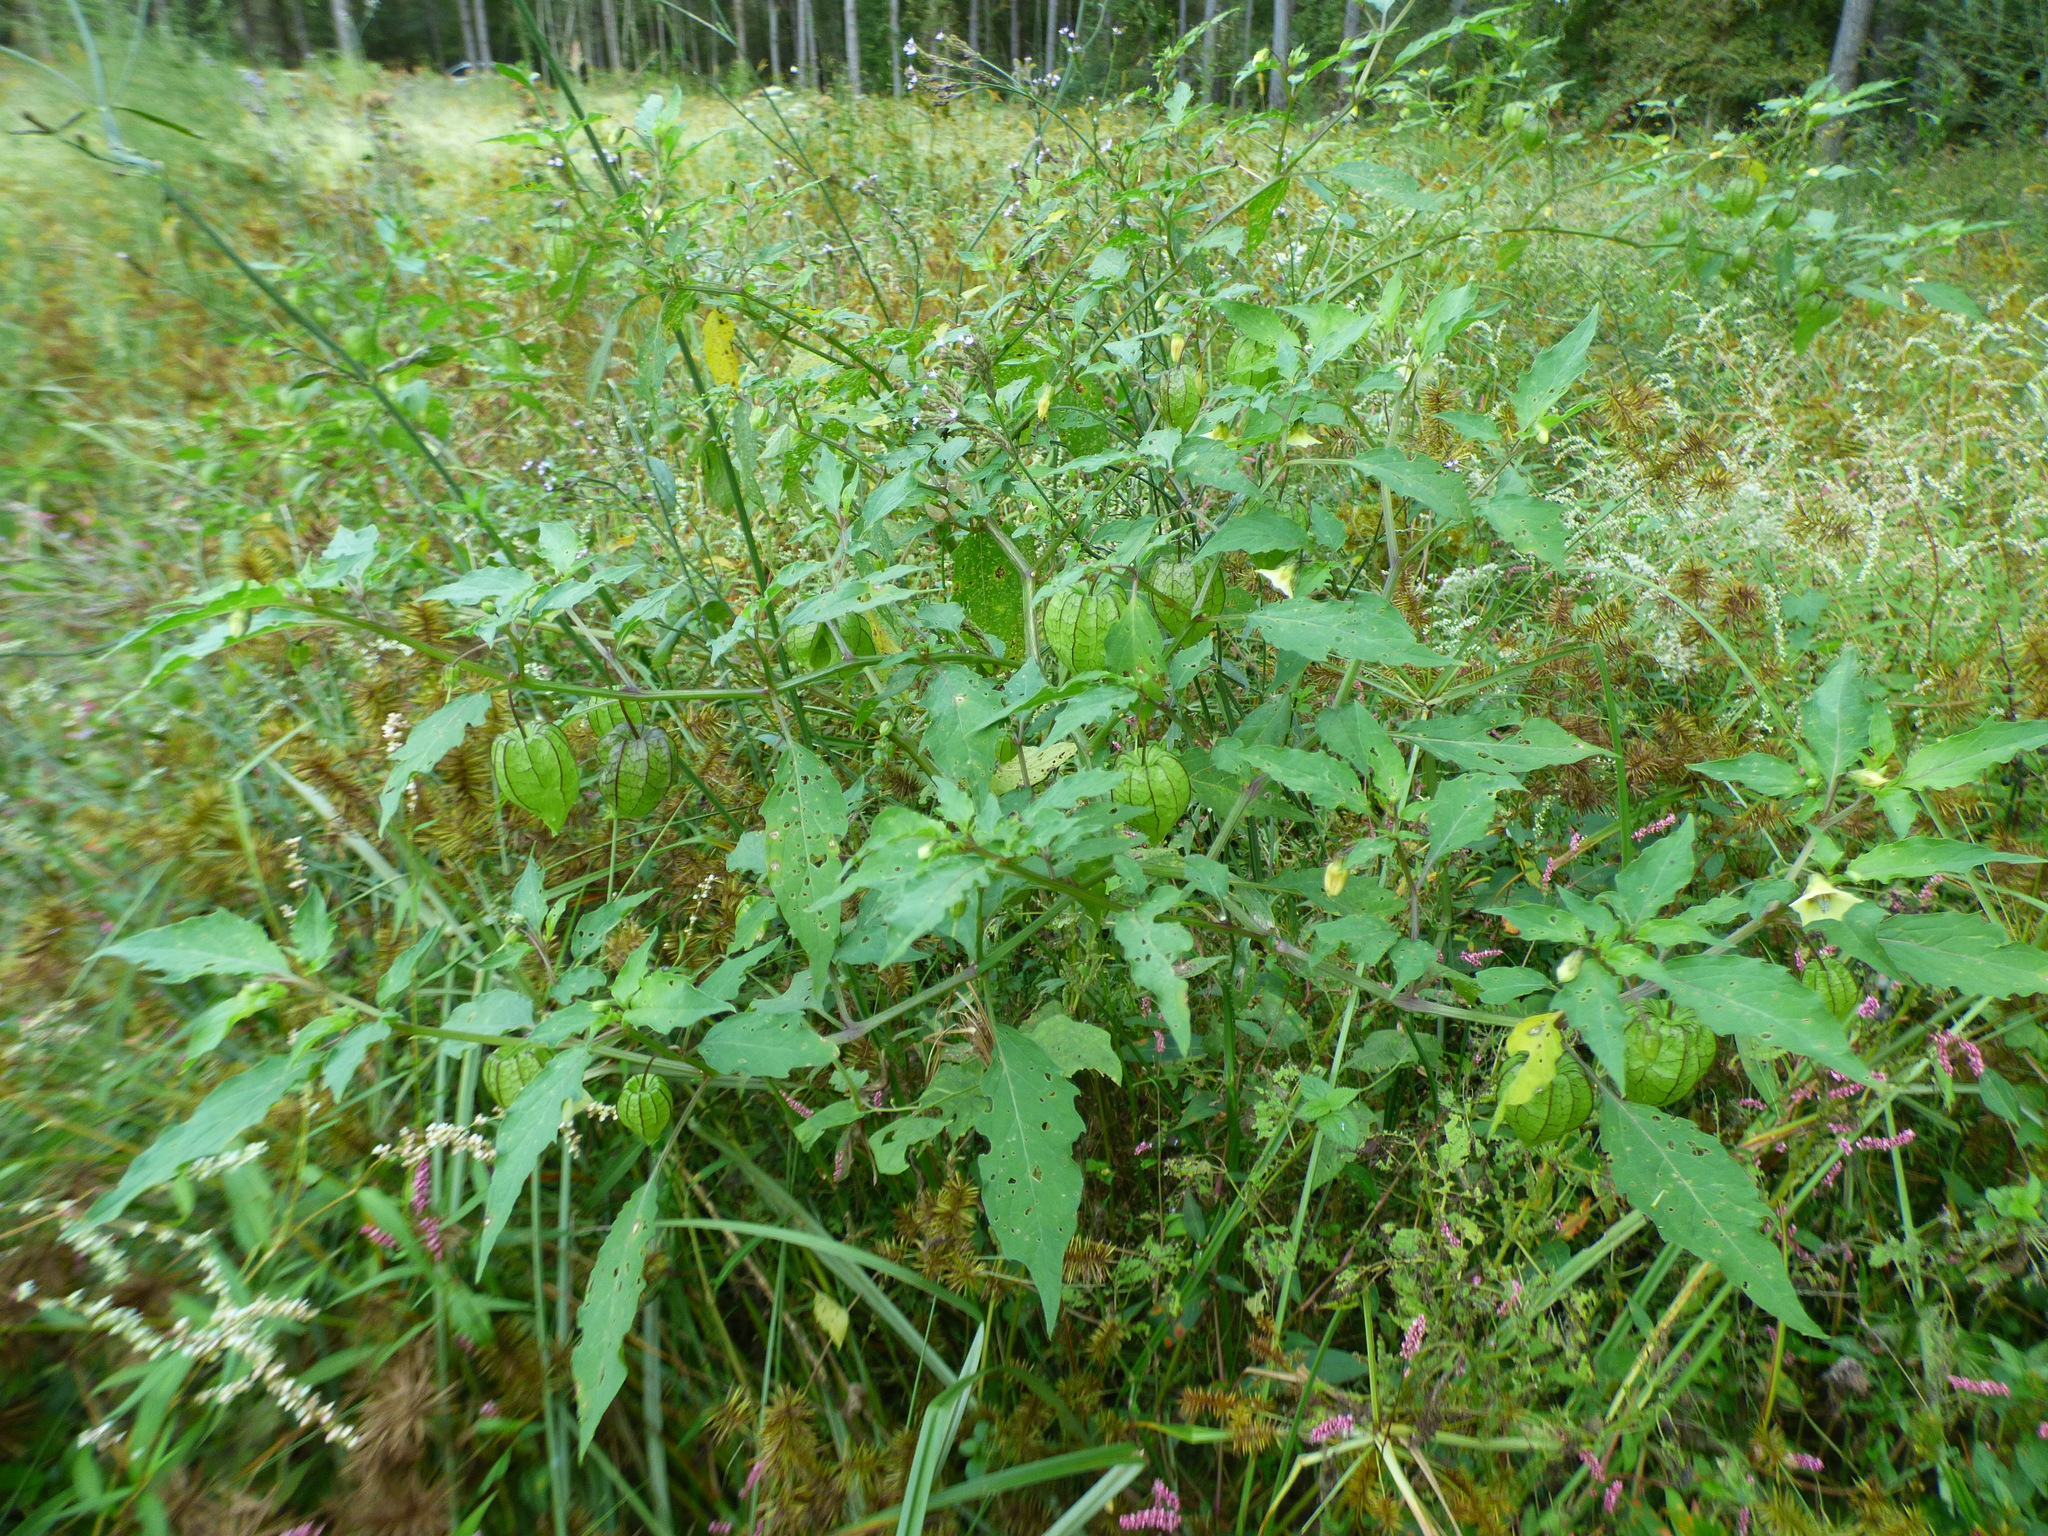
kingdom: Plantae
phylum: Tracheophyta
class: Magnoliopsida
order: Solanales
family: Solanaceae
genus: Physalis
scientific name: Physalis angulata
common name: Angular winter-cherry
